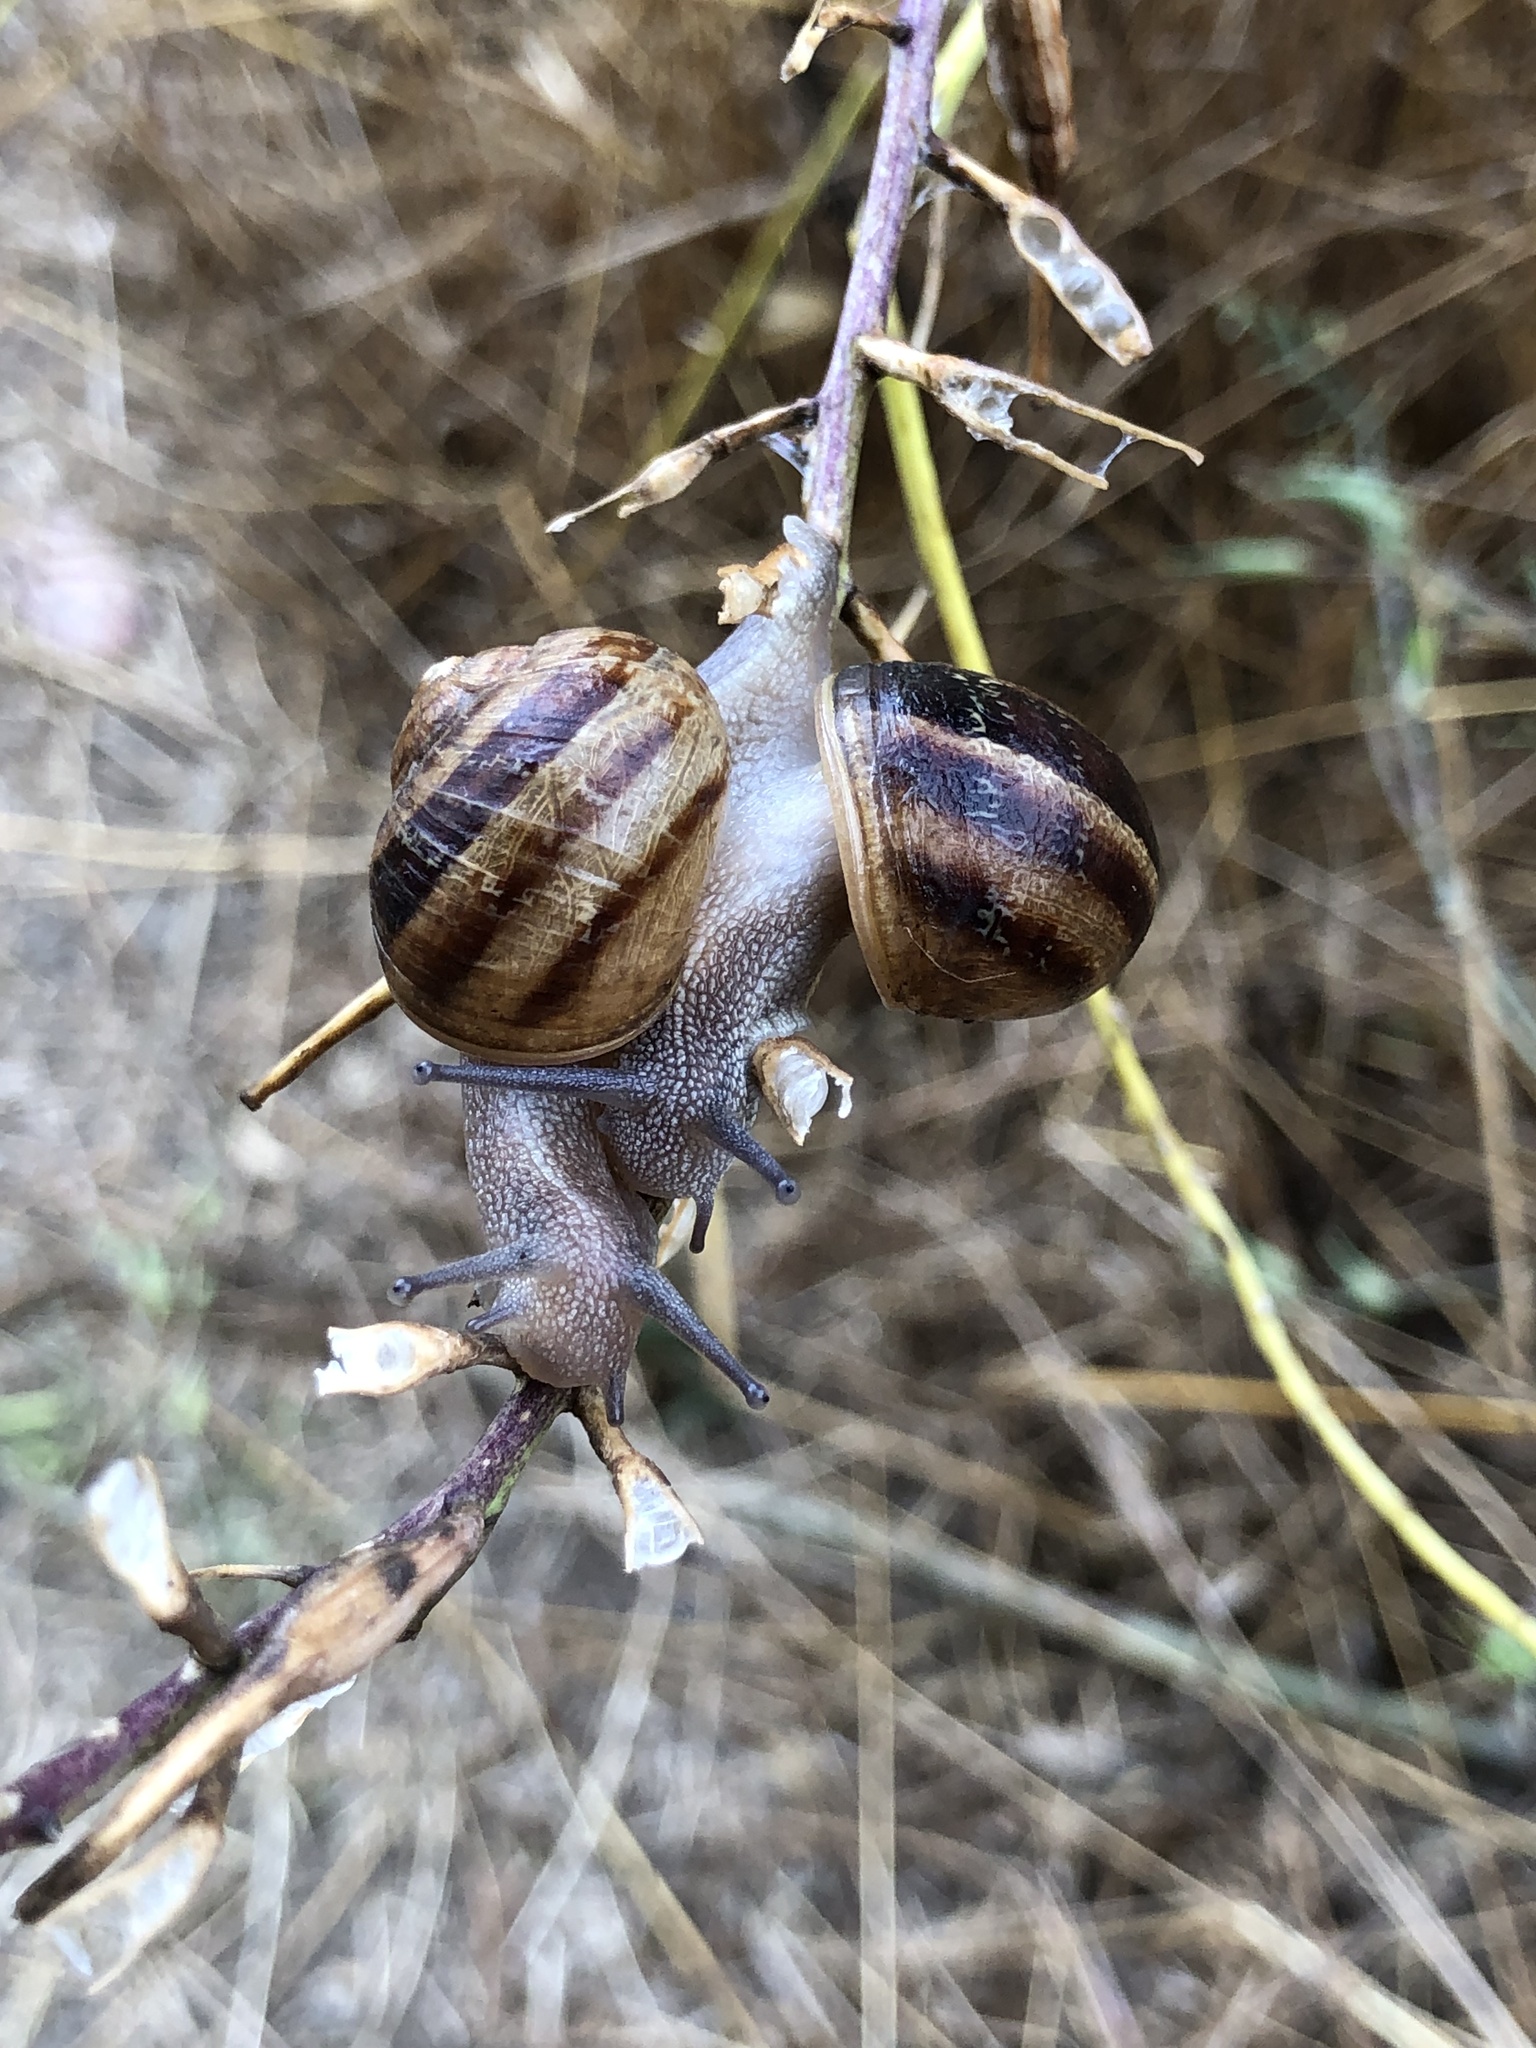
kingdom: Animalia
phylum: Mollusca
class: Gastropoda
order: Stylommatophora
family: Helicidae
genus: Cornu
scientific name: Cornu aspersum
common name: Brown garden snail
